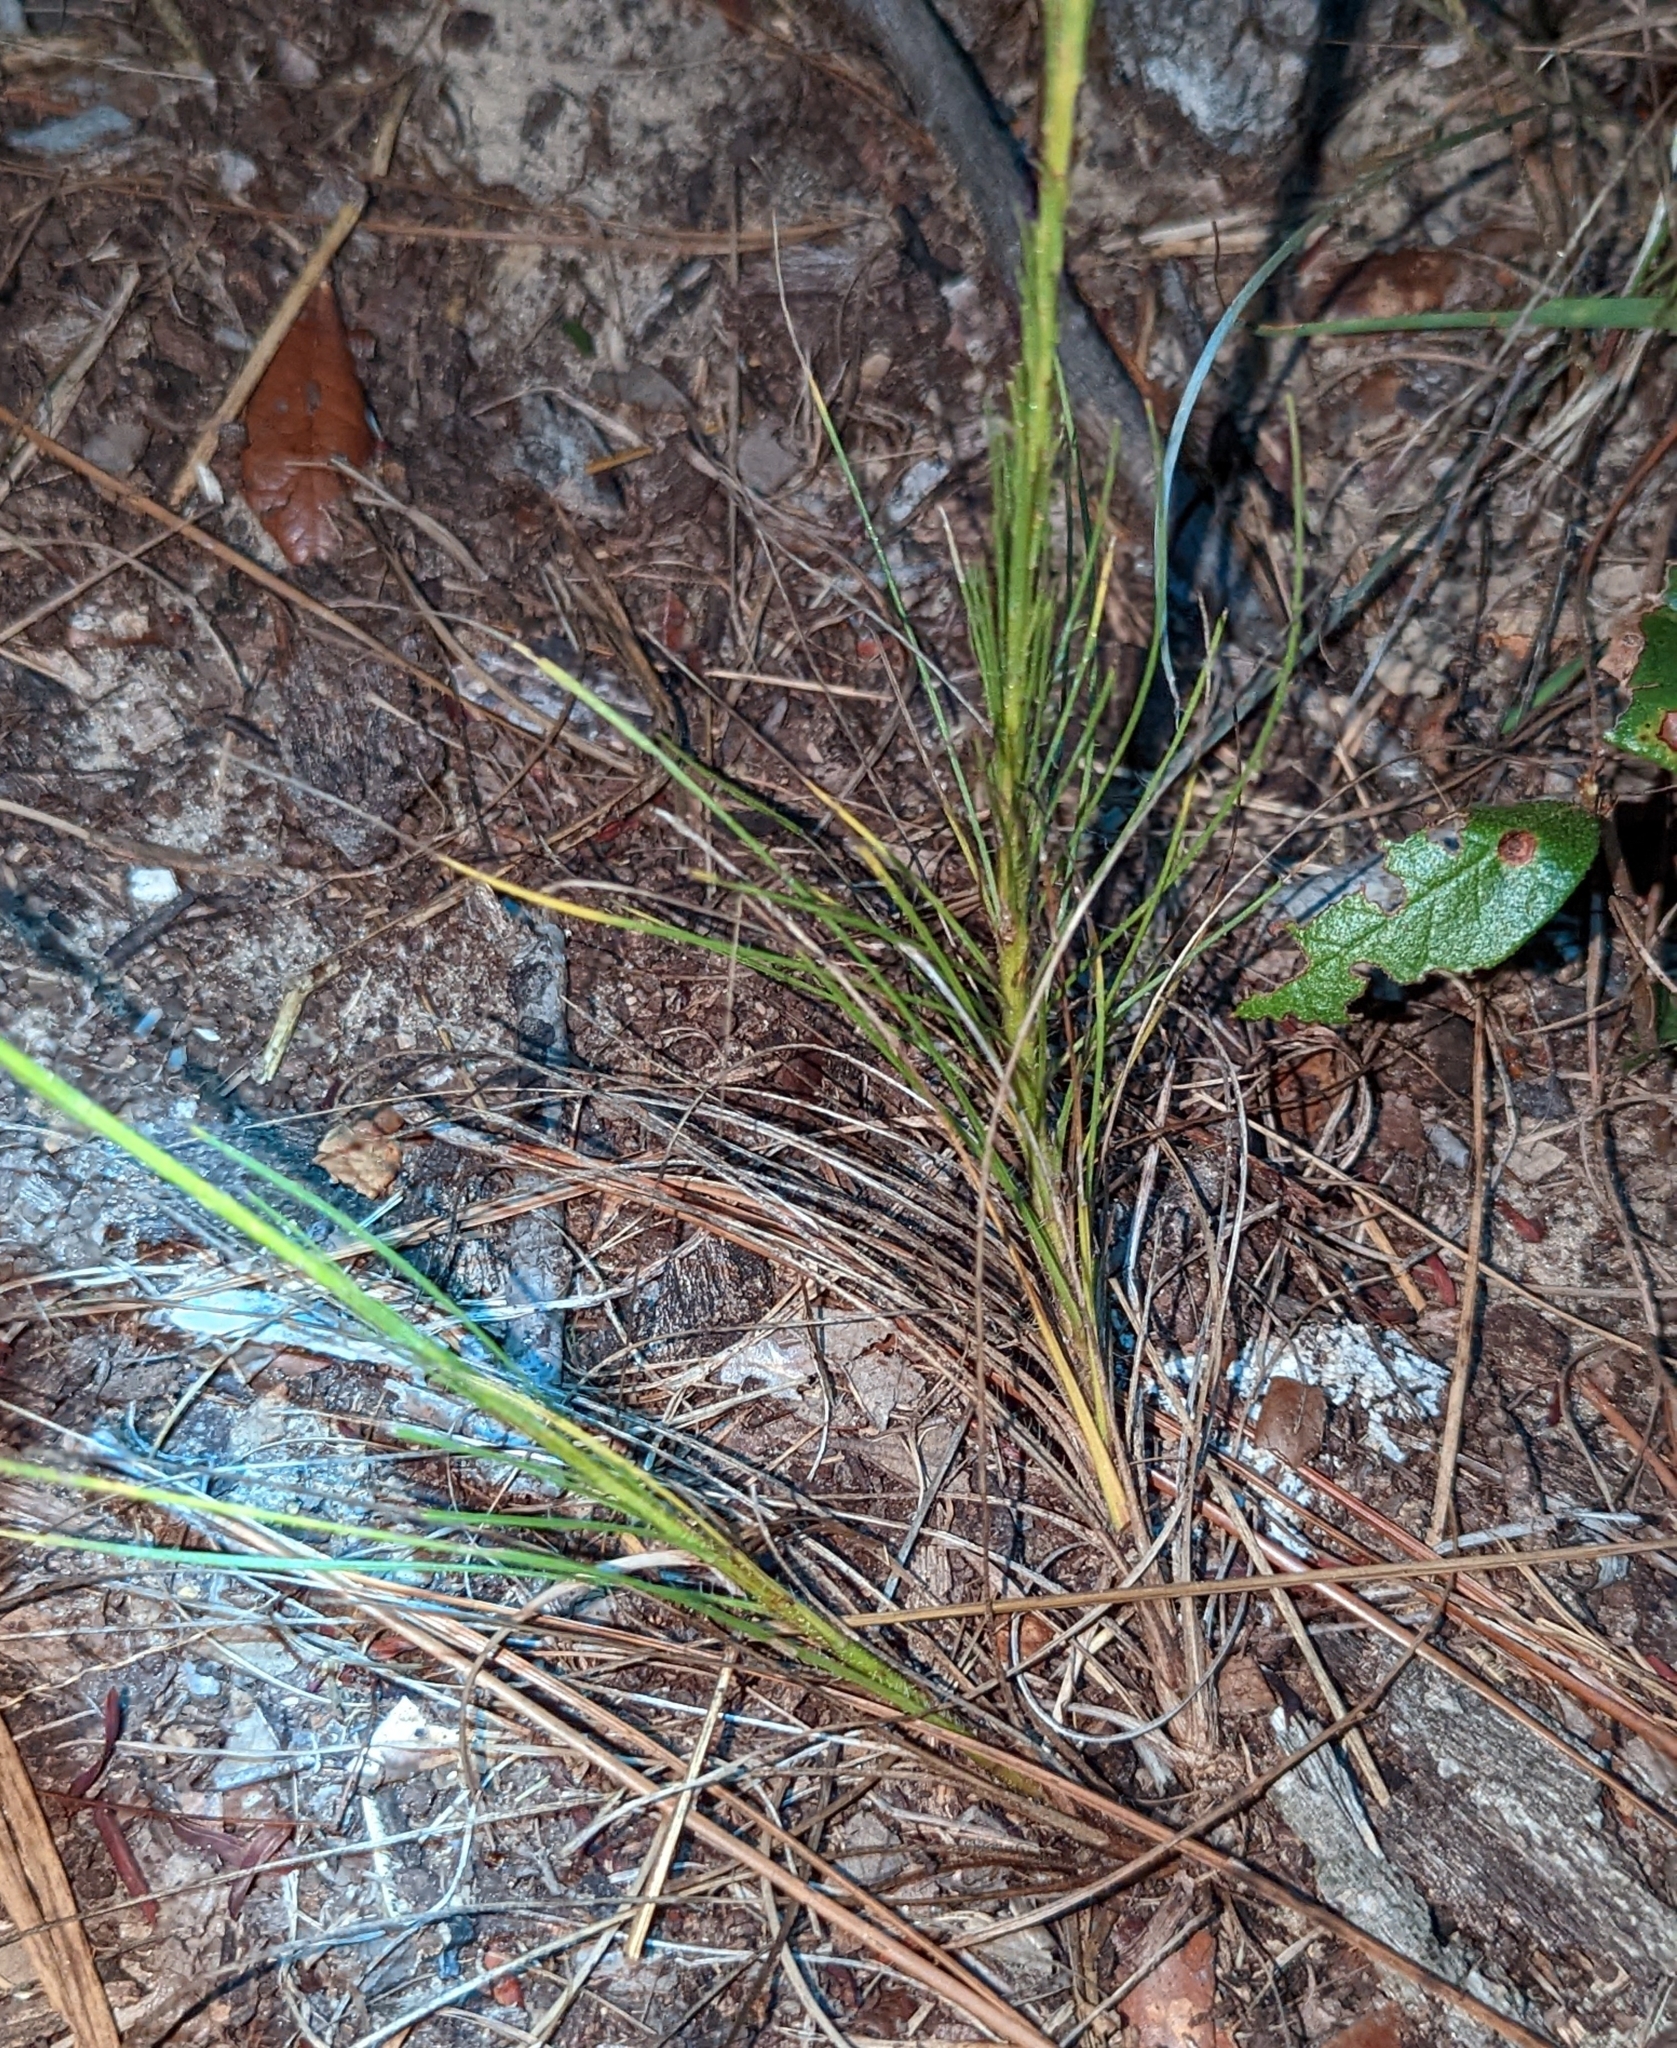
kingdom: Plantae
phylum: Tracheophyta
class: Magnoliopsida
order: Asterales
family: Asteraceae
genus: Liatris
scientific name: Liatris tenuifolia
